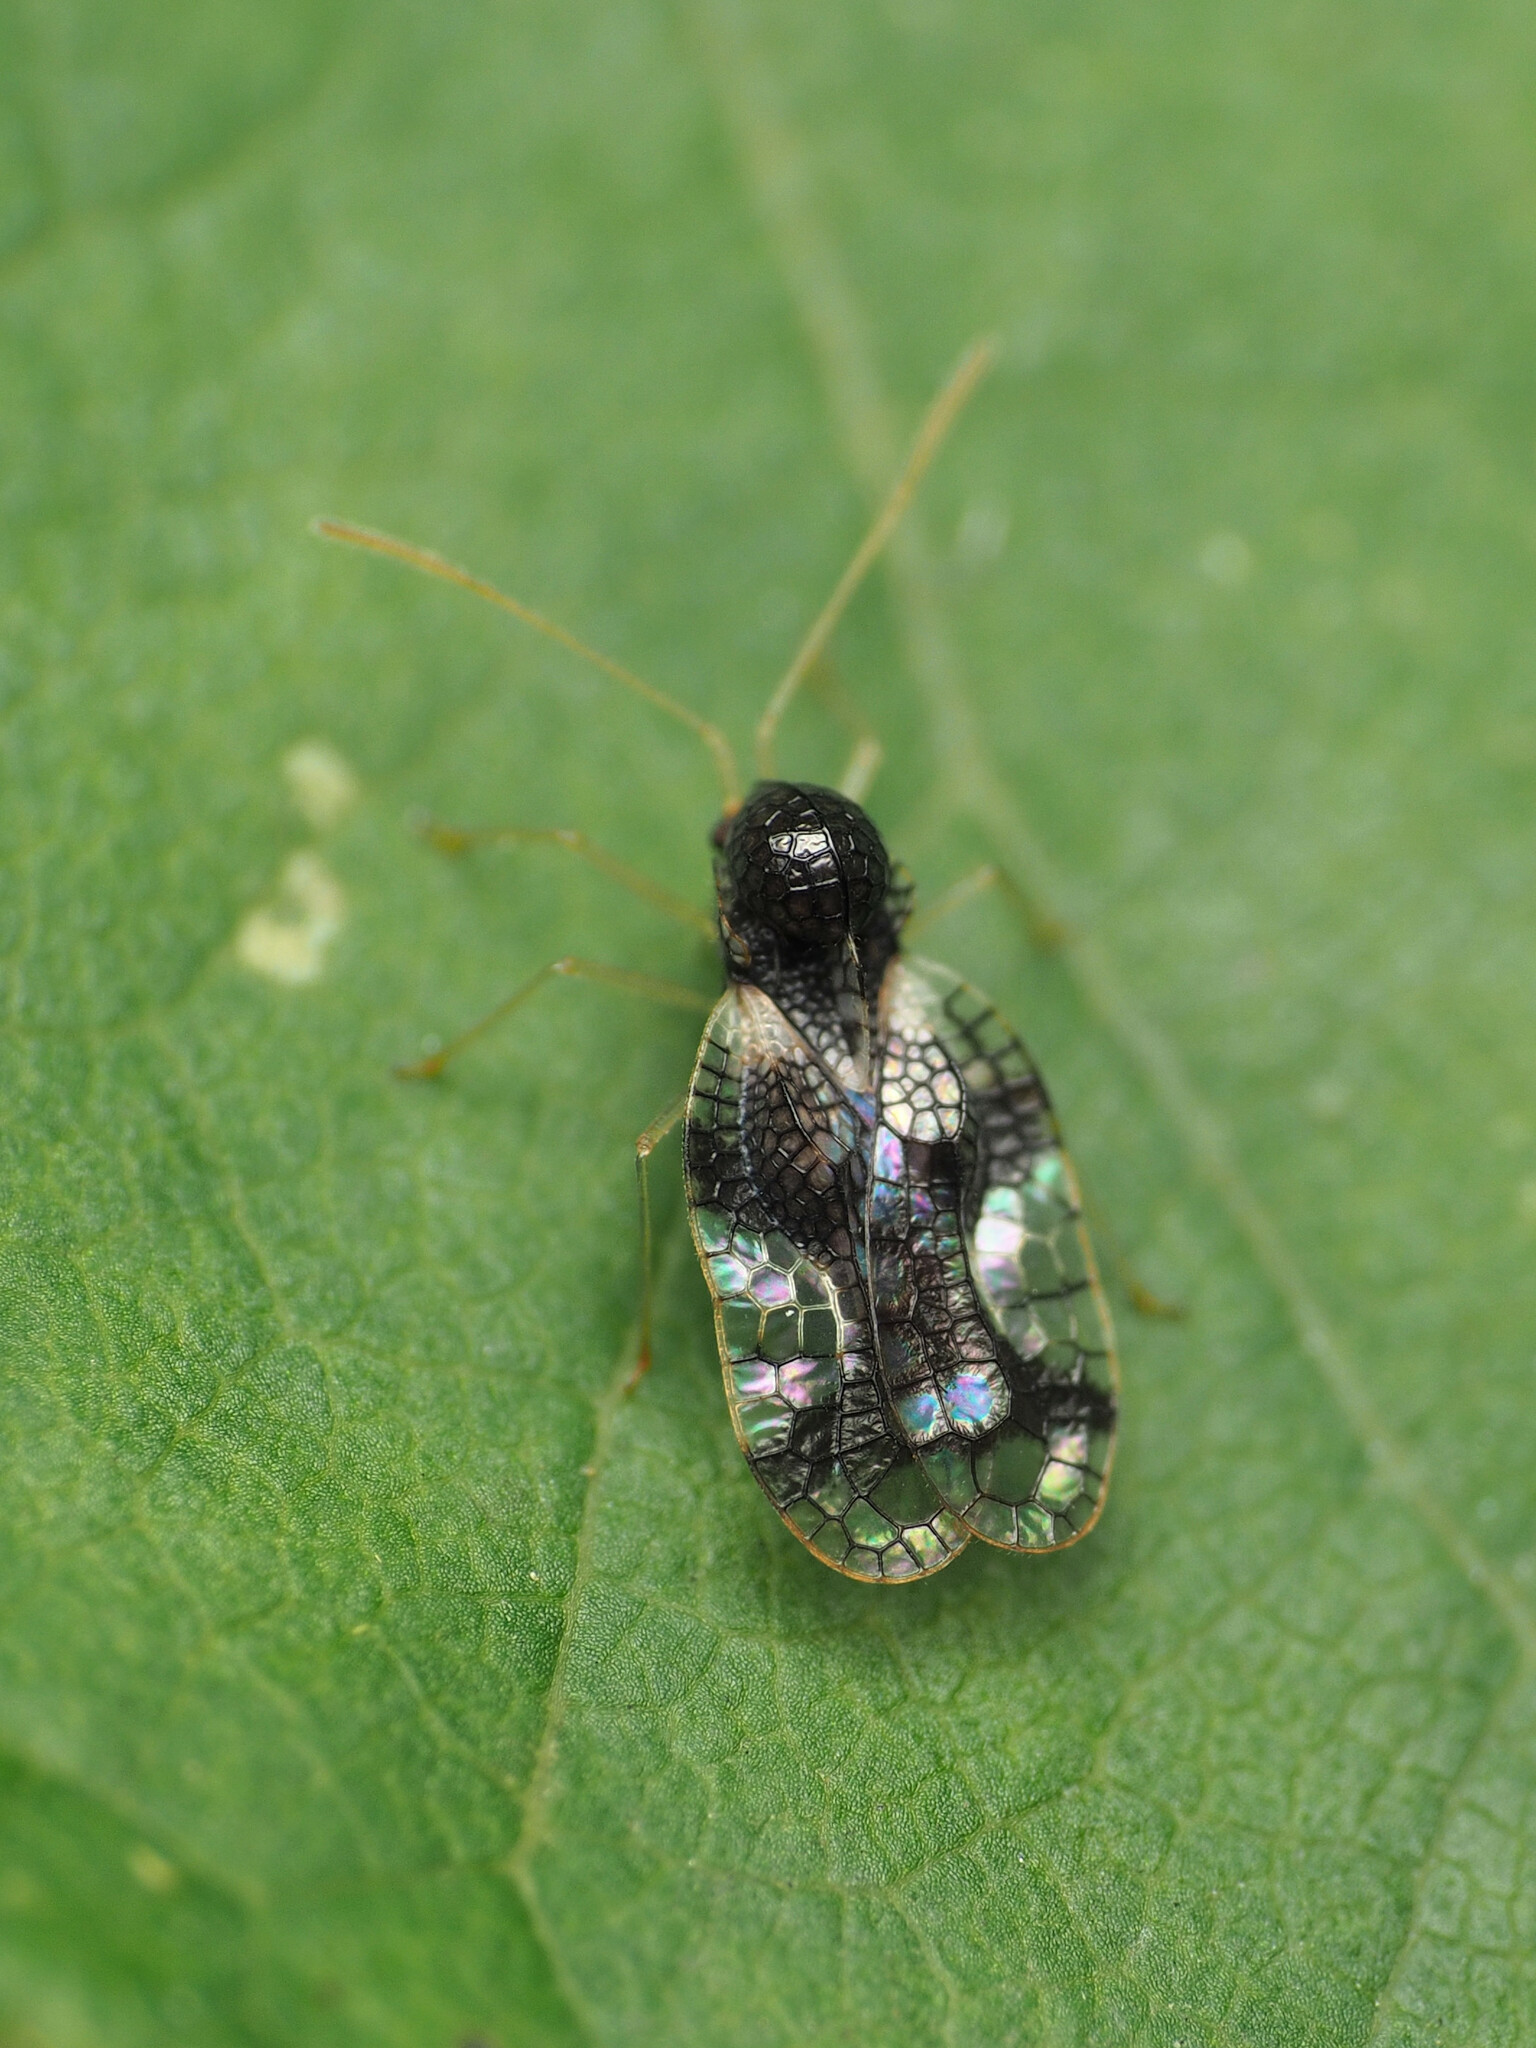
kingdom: Animalia
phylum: Arthropoda
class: Insecta
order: Hemiptera
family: Tingidae
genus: Stephanitis
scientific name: Stephanitis takeyai
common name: Andromeda lacebug
